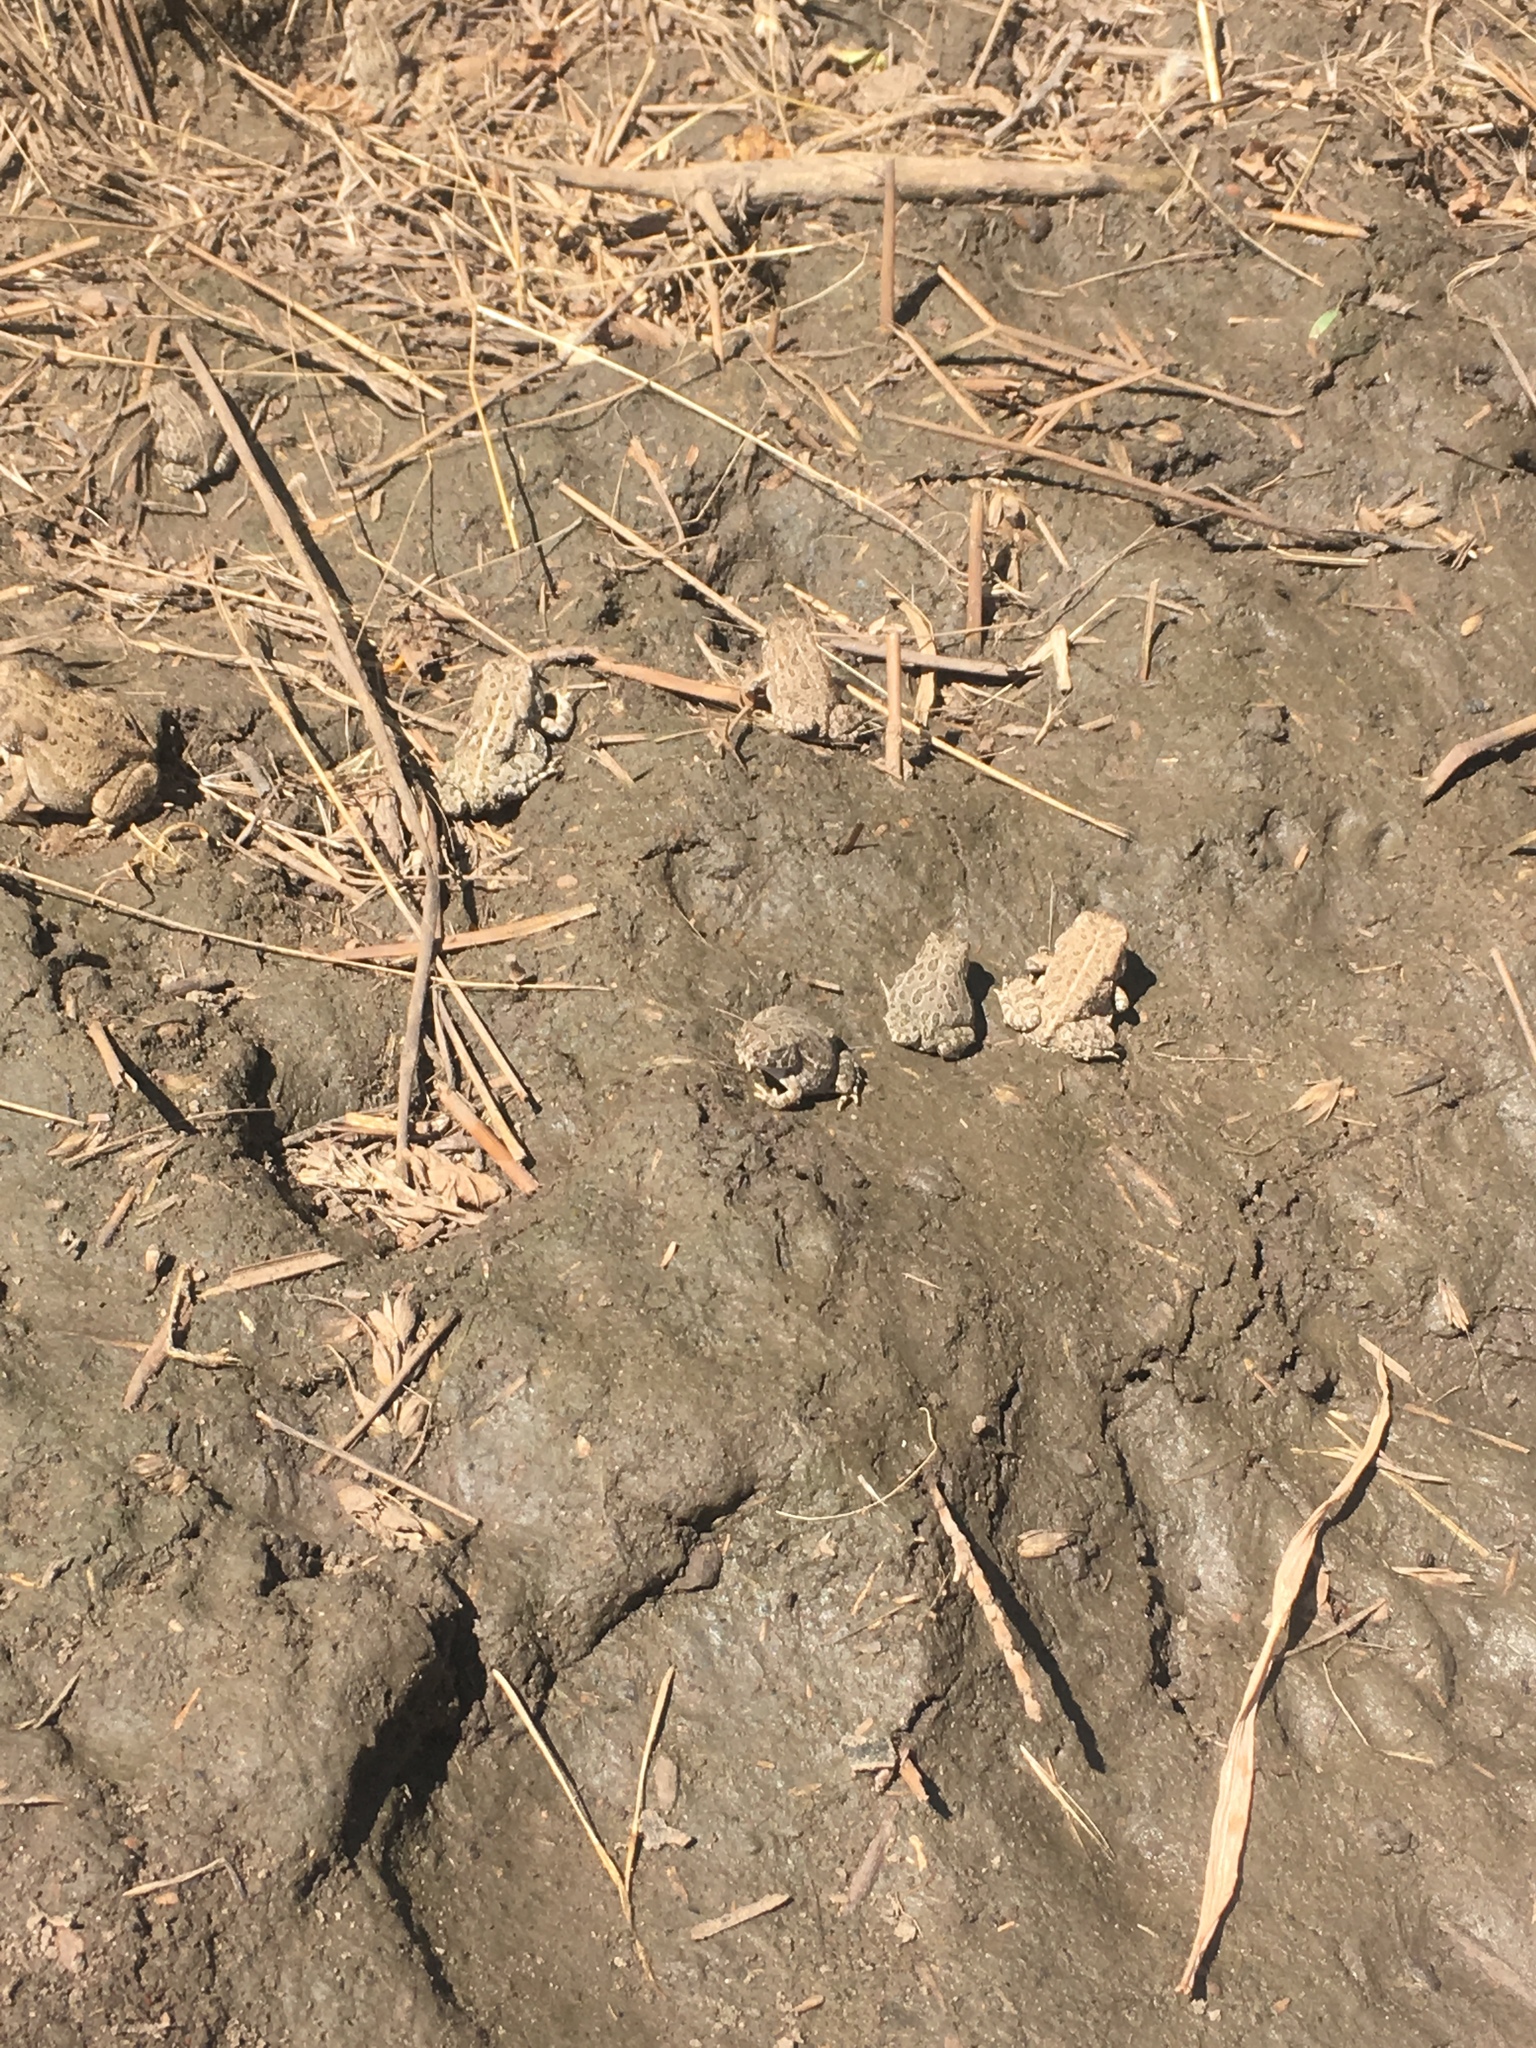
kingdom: Animalia
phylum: Chordata
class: Amphibia
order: Anura
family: Bufonidae
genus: Anaxyrus
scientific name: Anaxyrus woodhousii
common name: Woodhouse's toad
